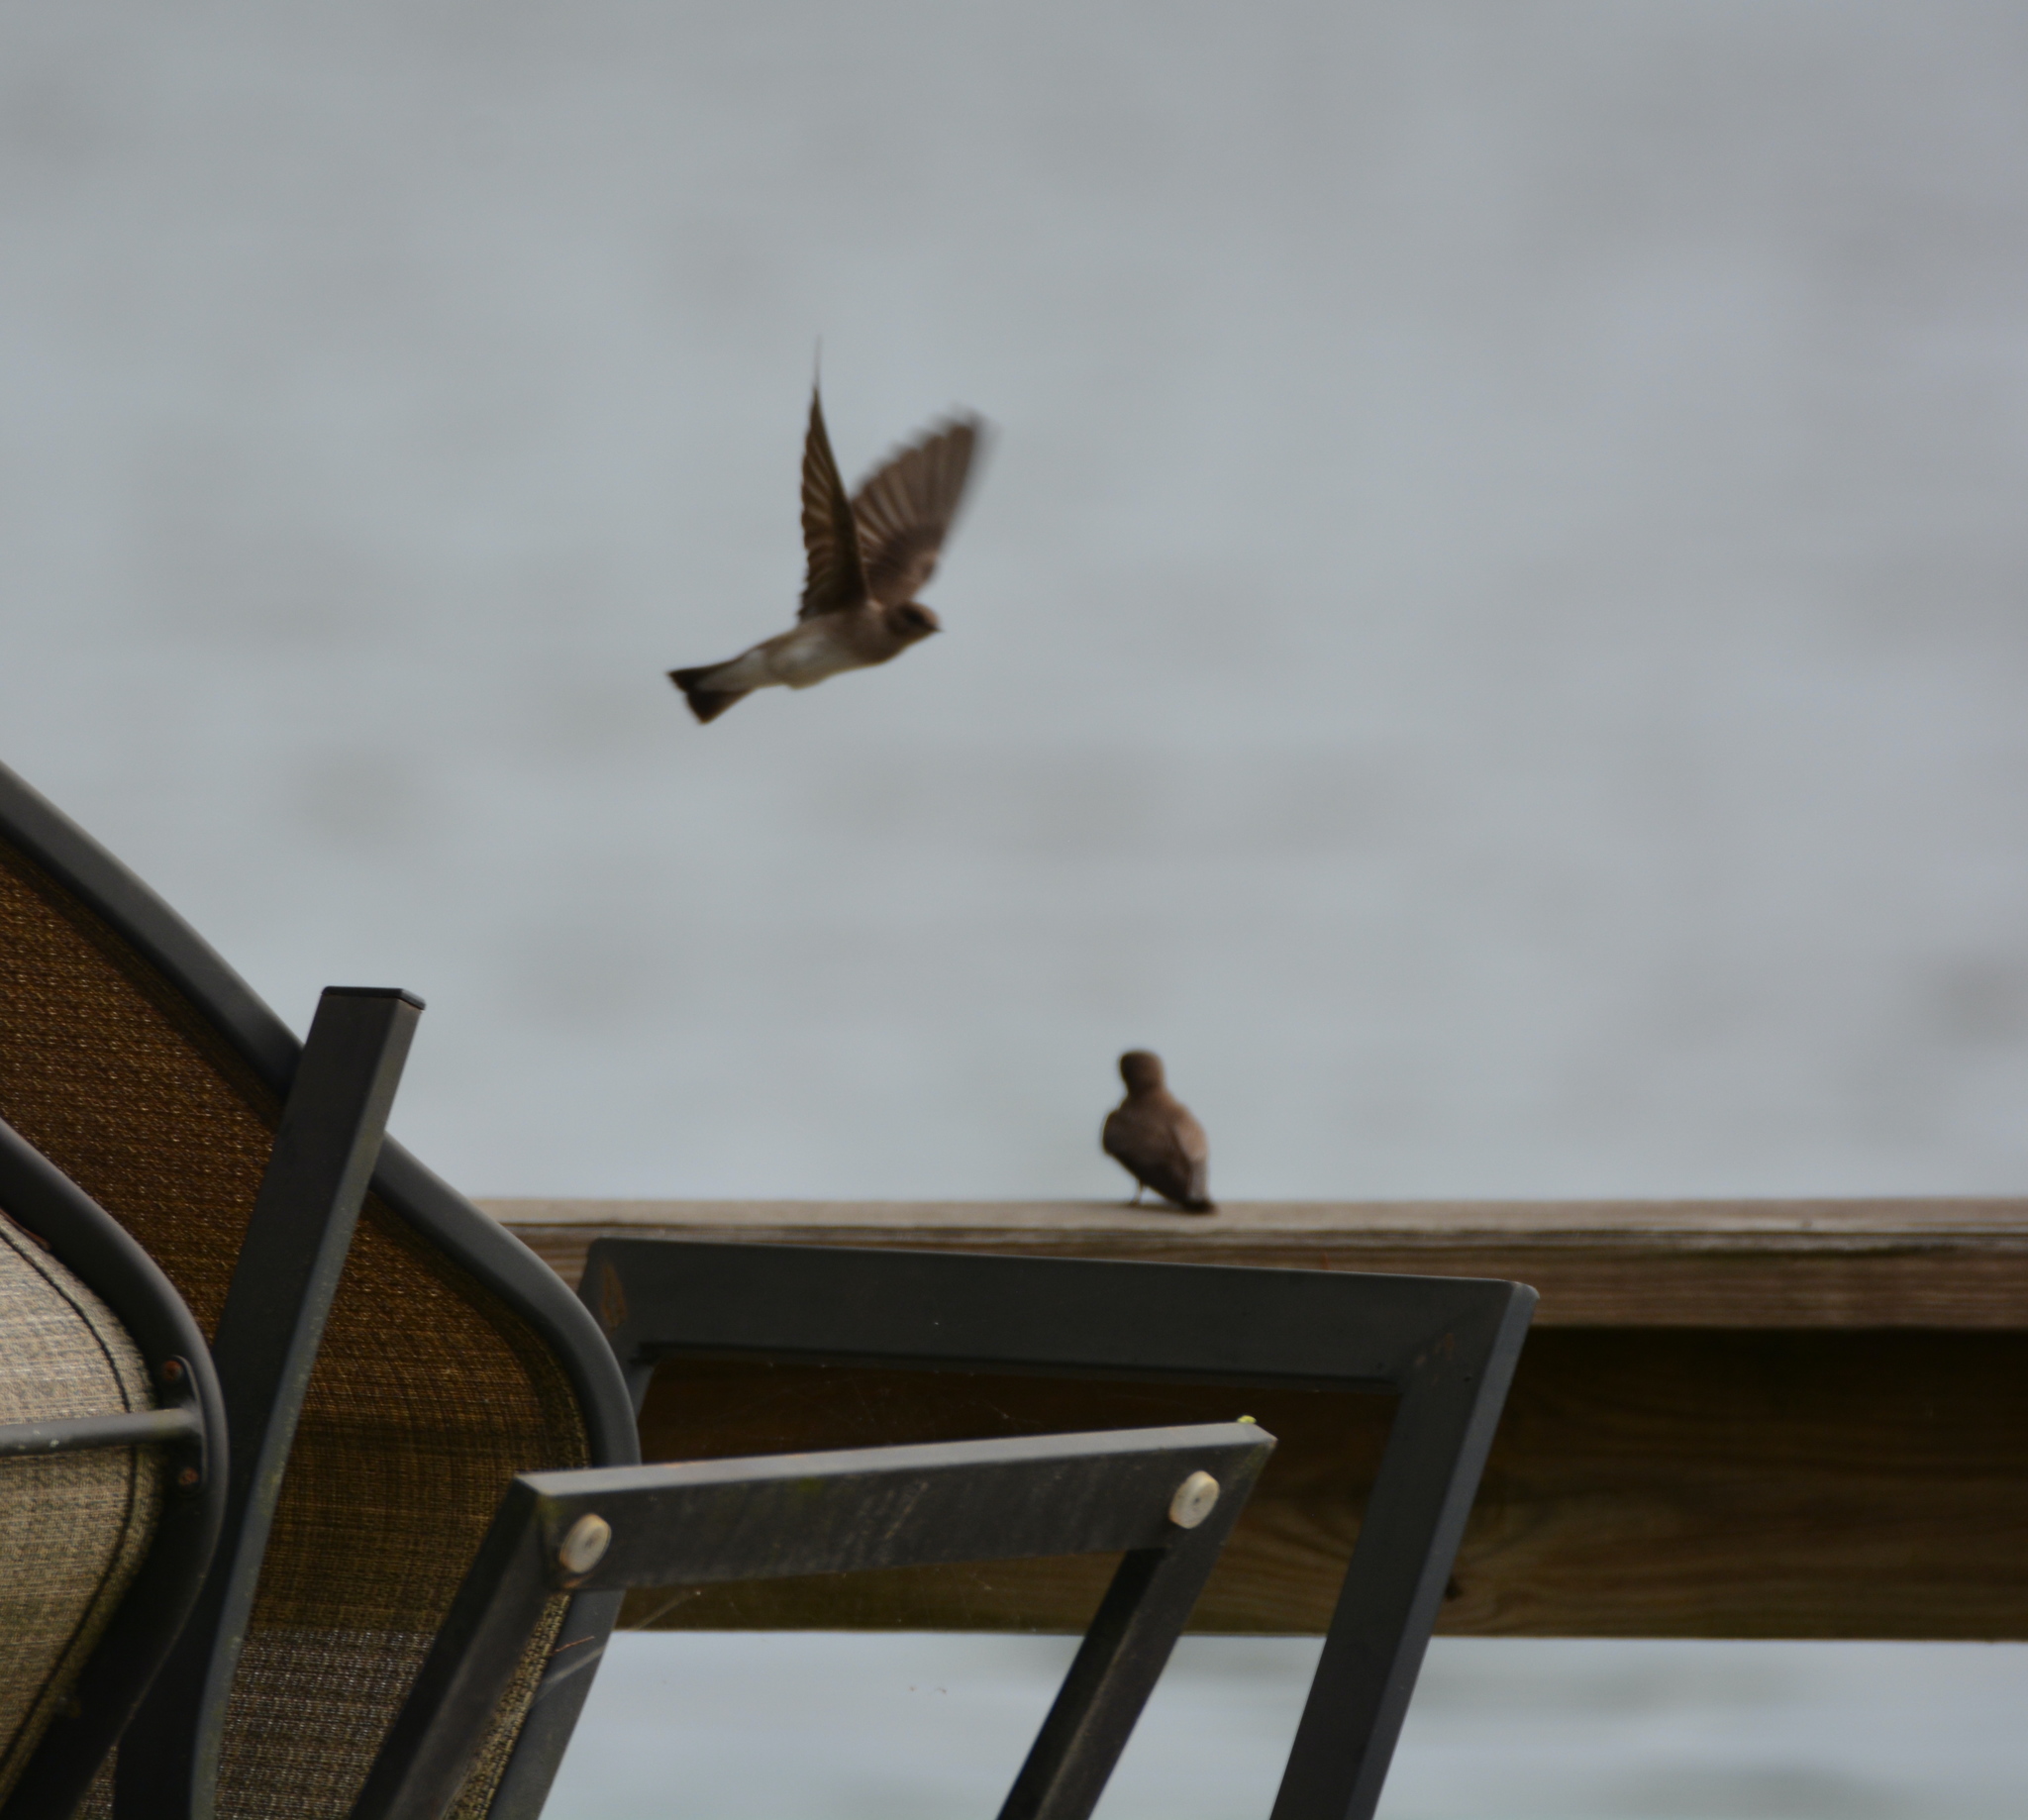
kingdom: Animalia
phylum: Chordata
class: Aves
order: Passeriformes
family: Hirundinidae
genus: Stelgidopteryx
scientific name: Stelgidopteryx serripennis
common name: Northern rough-winged swallow
